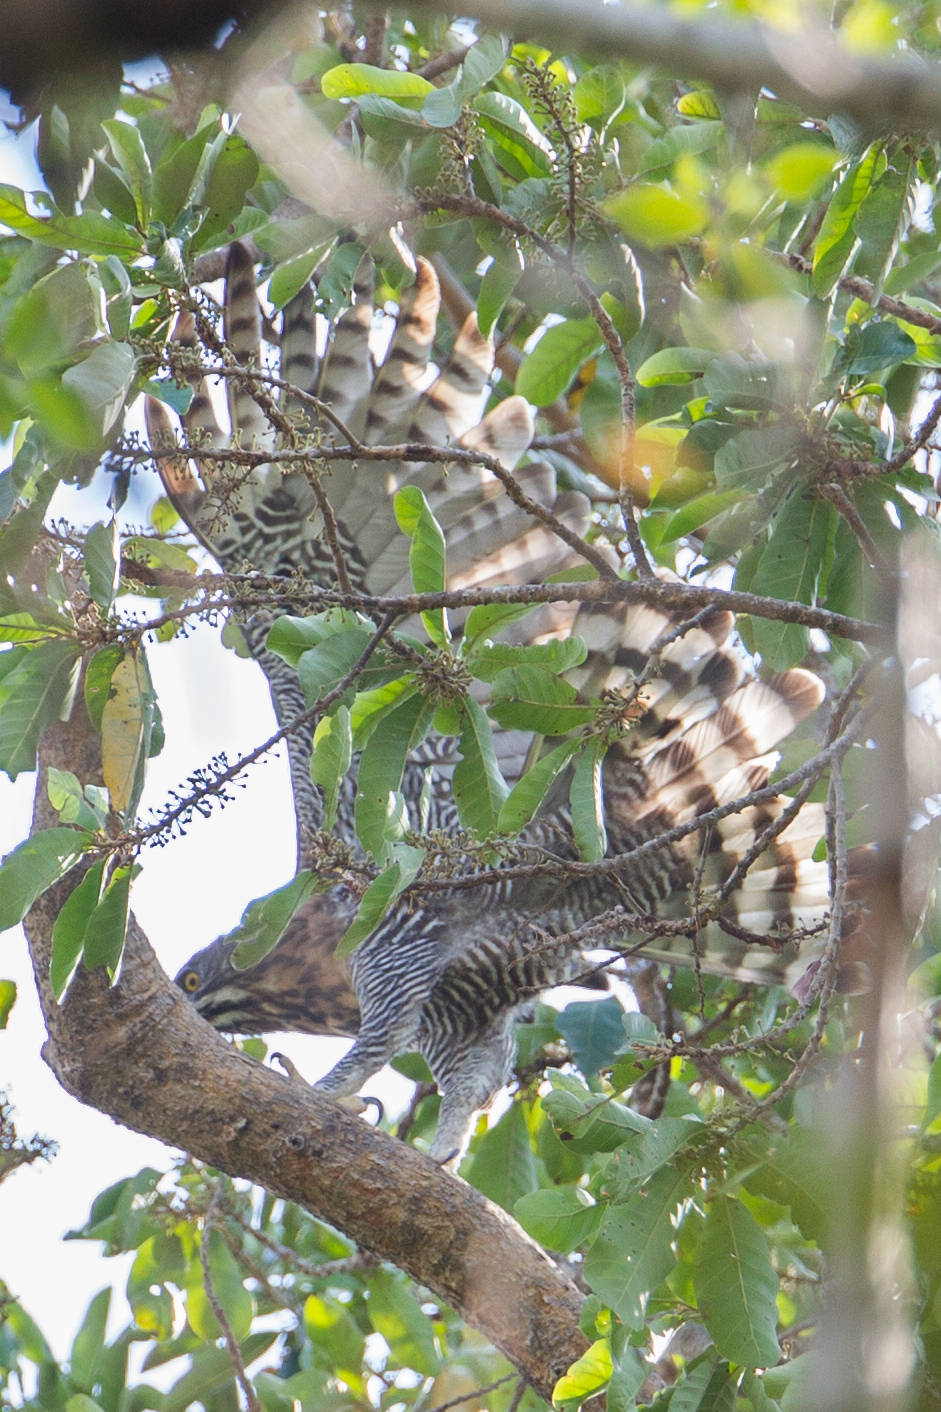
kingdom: Animalia
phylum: Chordata
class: Aves
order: Accipitriformes
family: Accipitridae
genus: Nisaetus
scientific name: Nisaetus lanceolatus
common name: Sulawesi hawk-eagle
